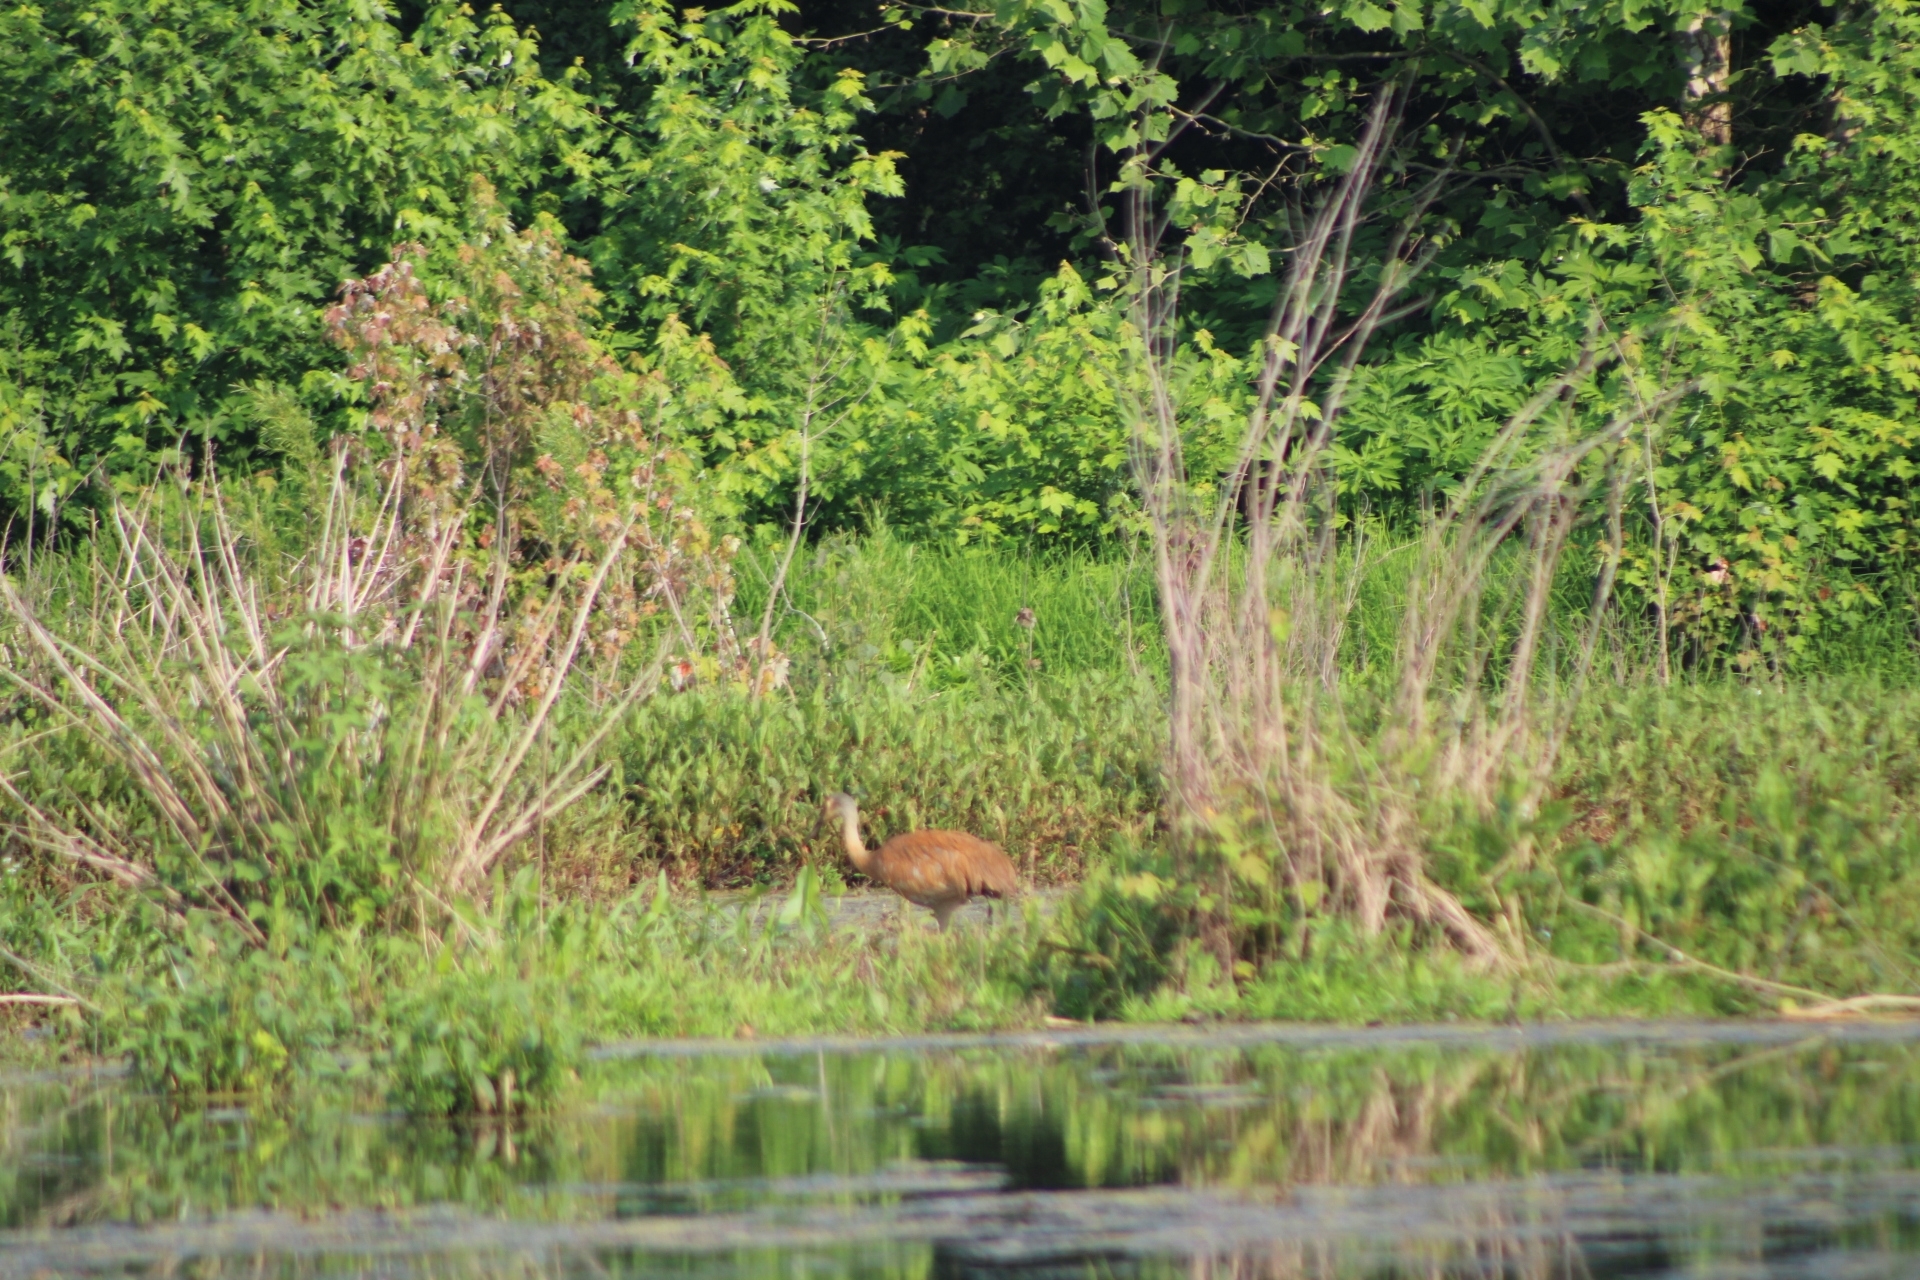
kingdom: Animalia
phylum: Chordata
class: Aves
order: Gruiformes
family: Gruidae
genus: Grus
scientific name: Grus canadensis
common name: Sandhill crane
